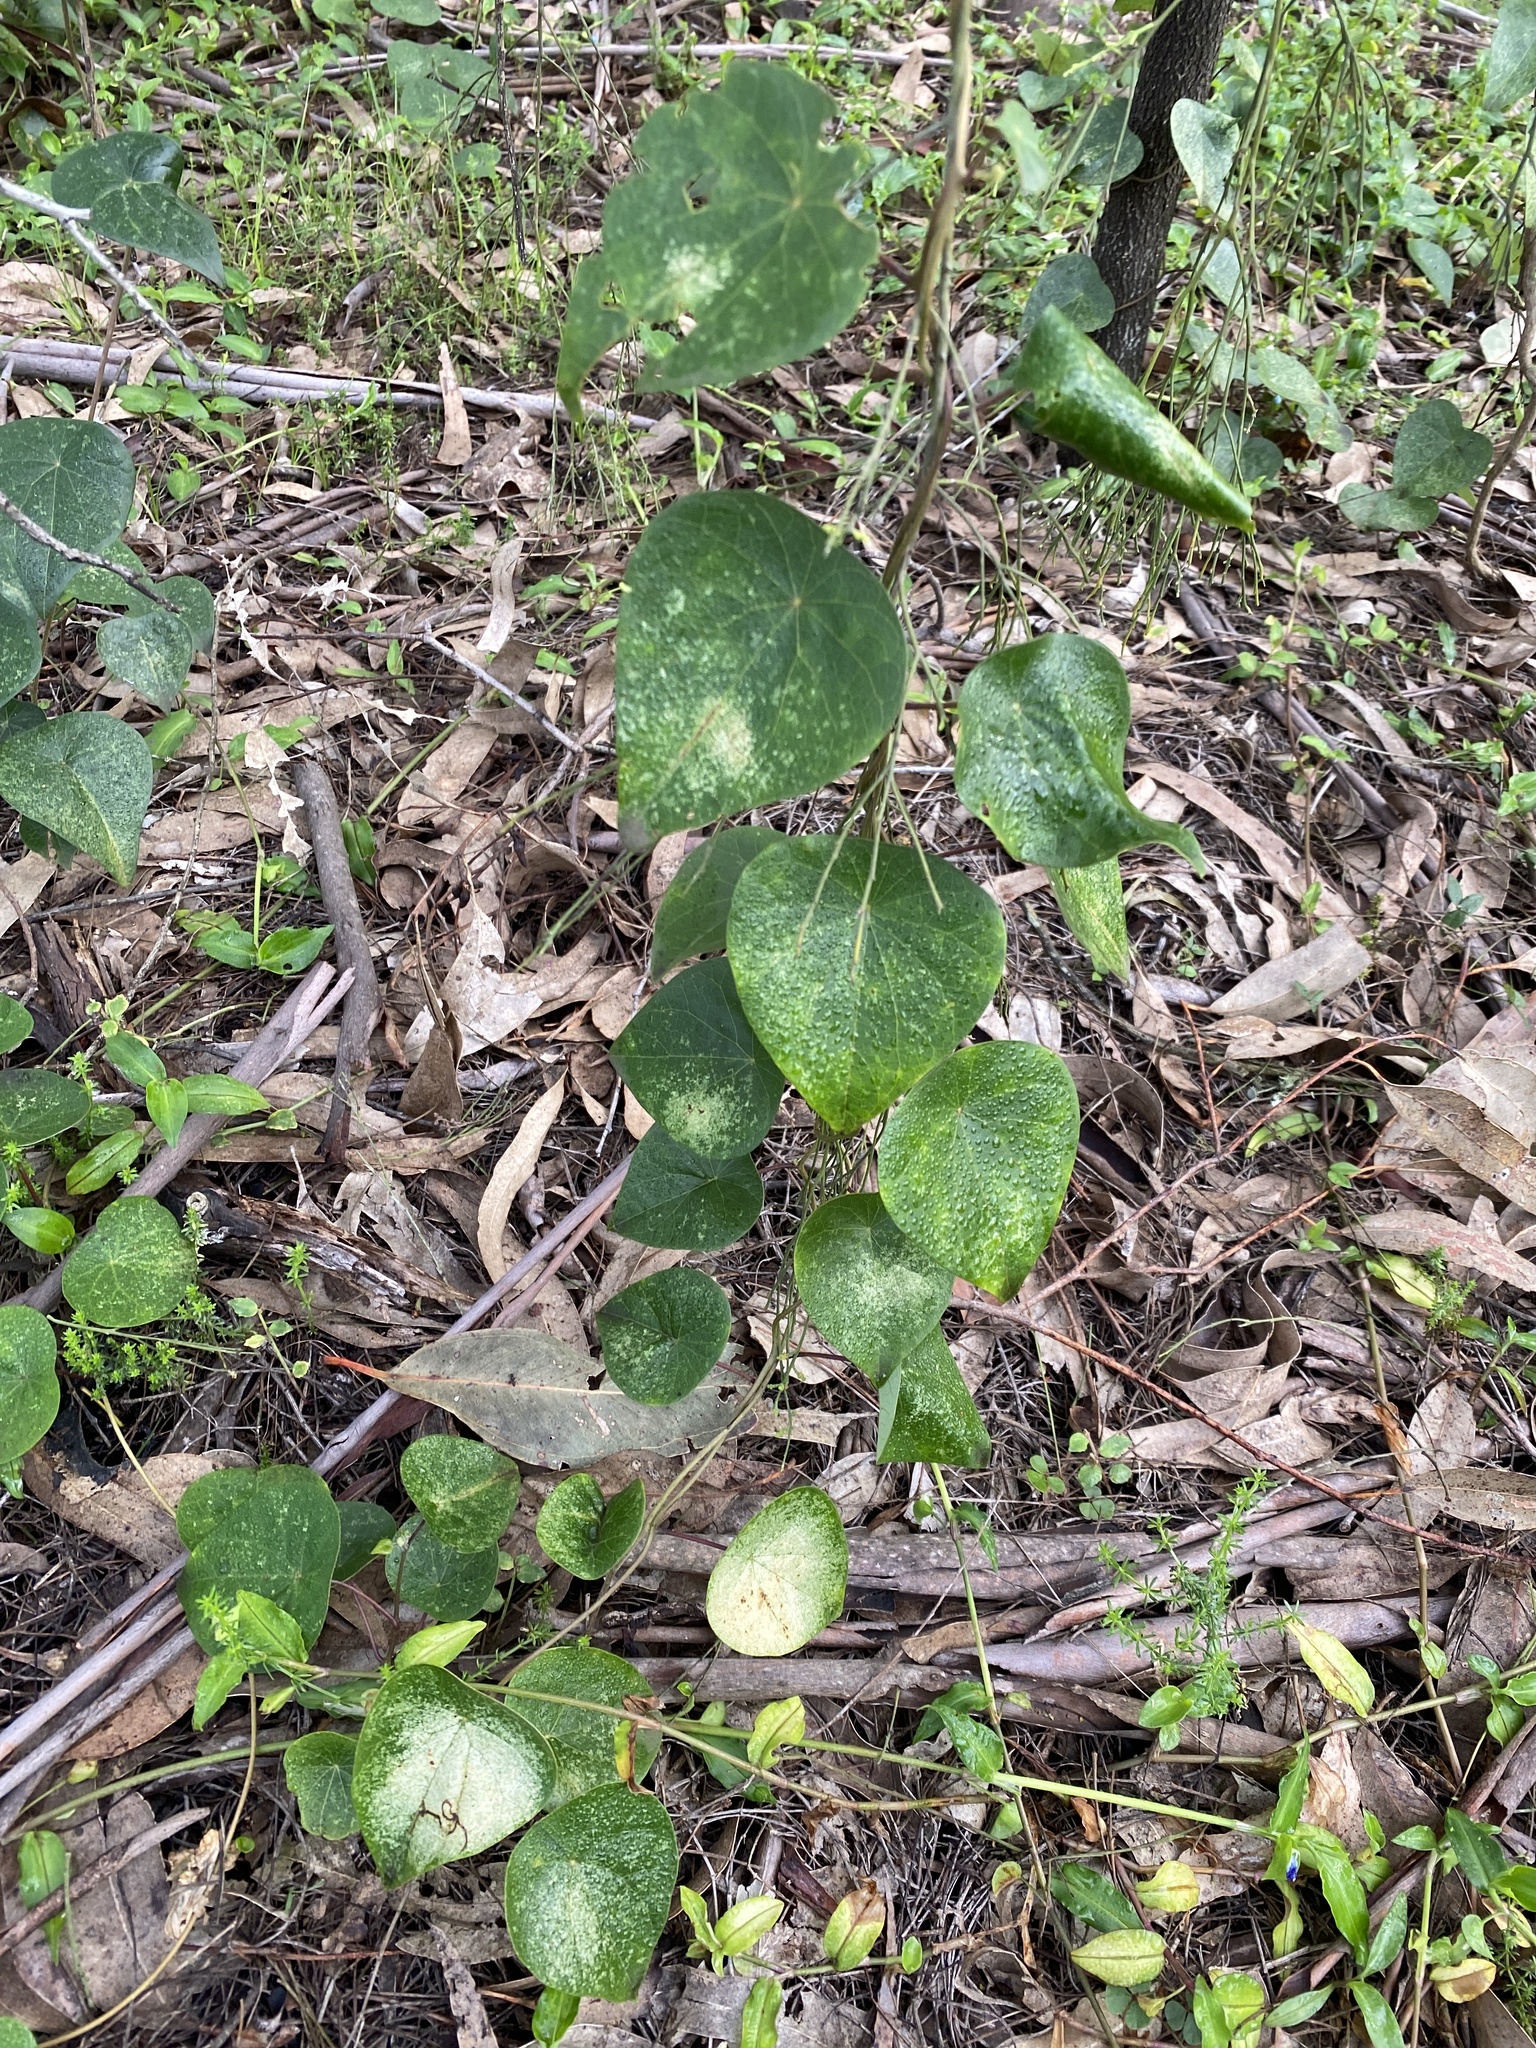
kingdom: Plantae
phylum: Tracheophyta
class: Magnoliopsida
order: Ranunculales
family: Menispermaceae
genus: Stephania
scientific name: Stephania japonica
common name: Snake vine
